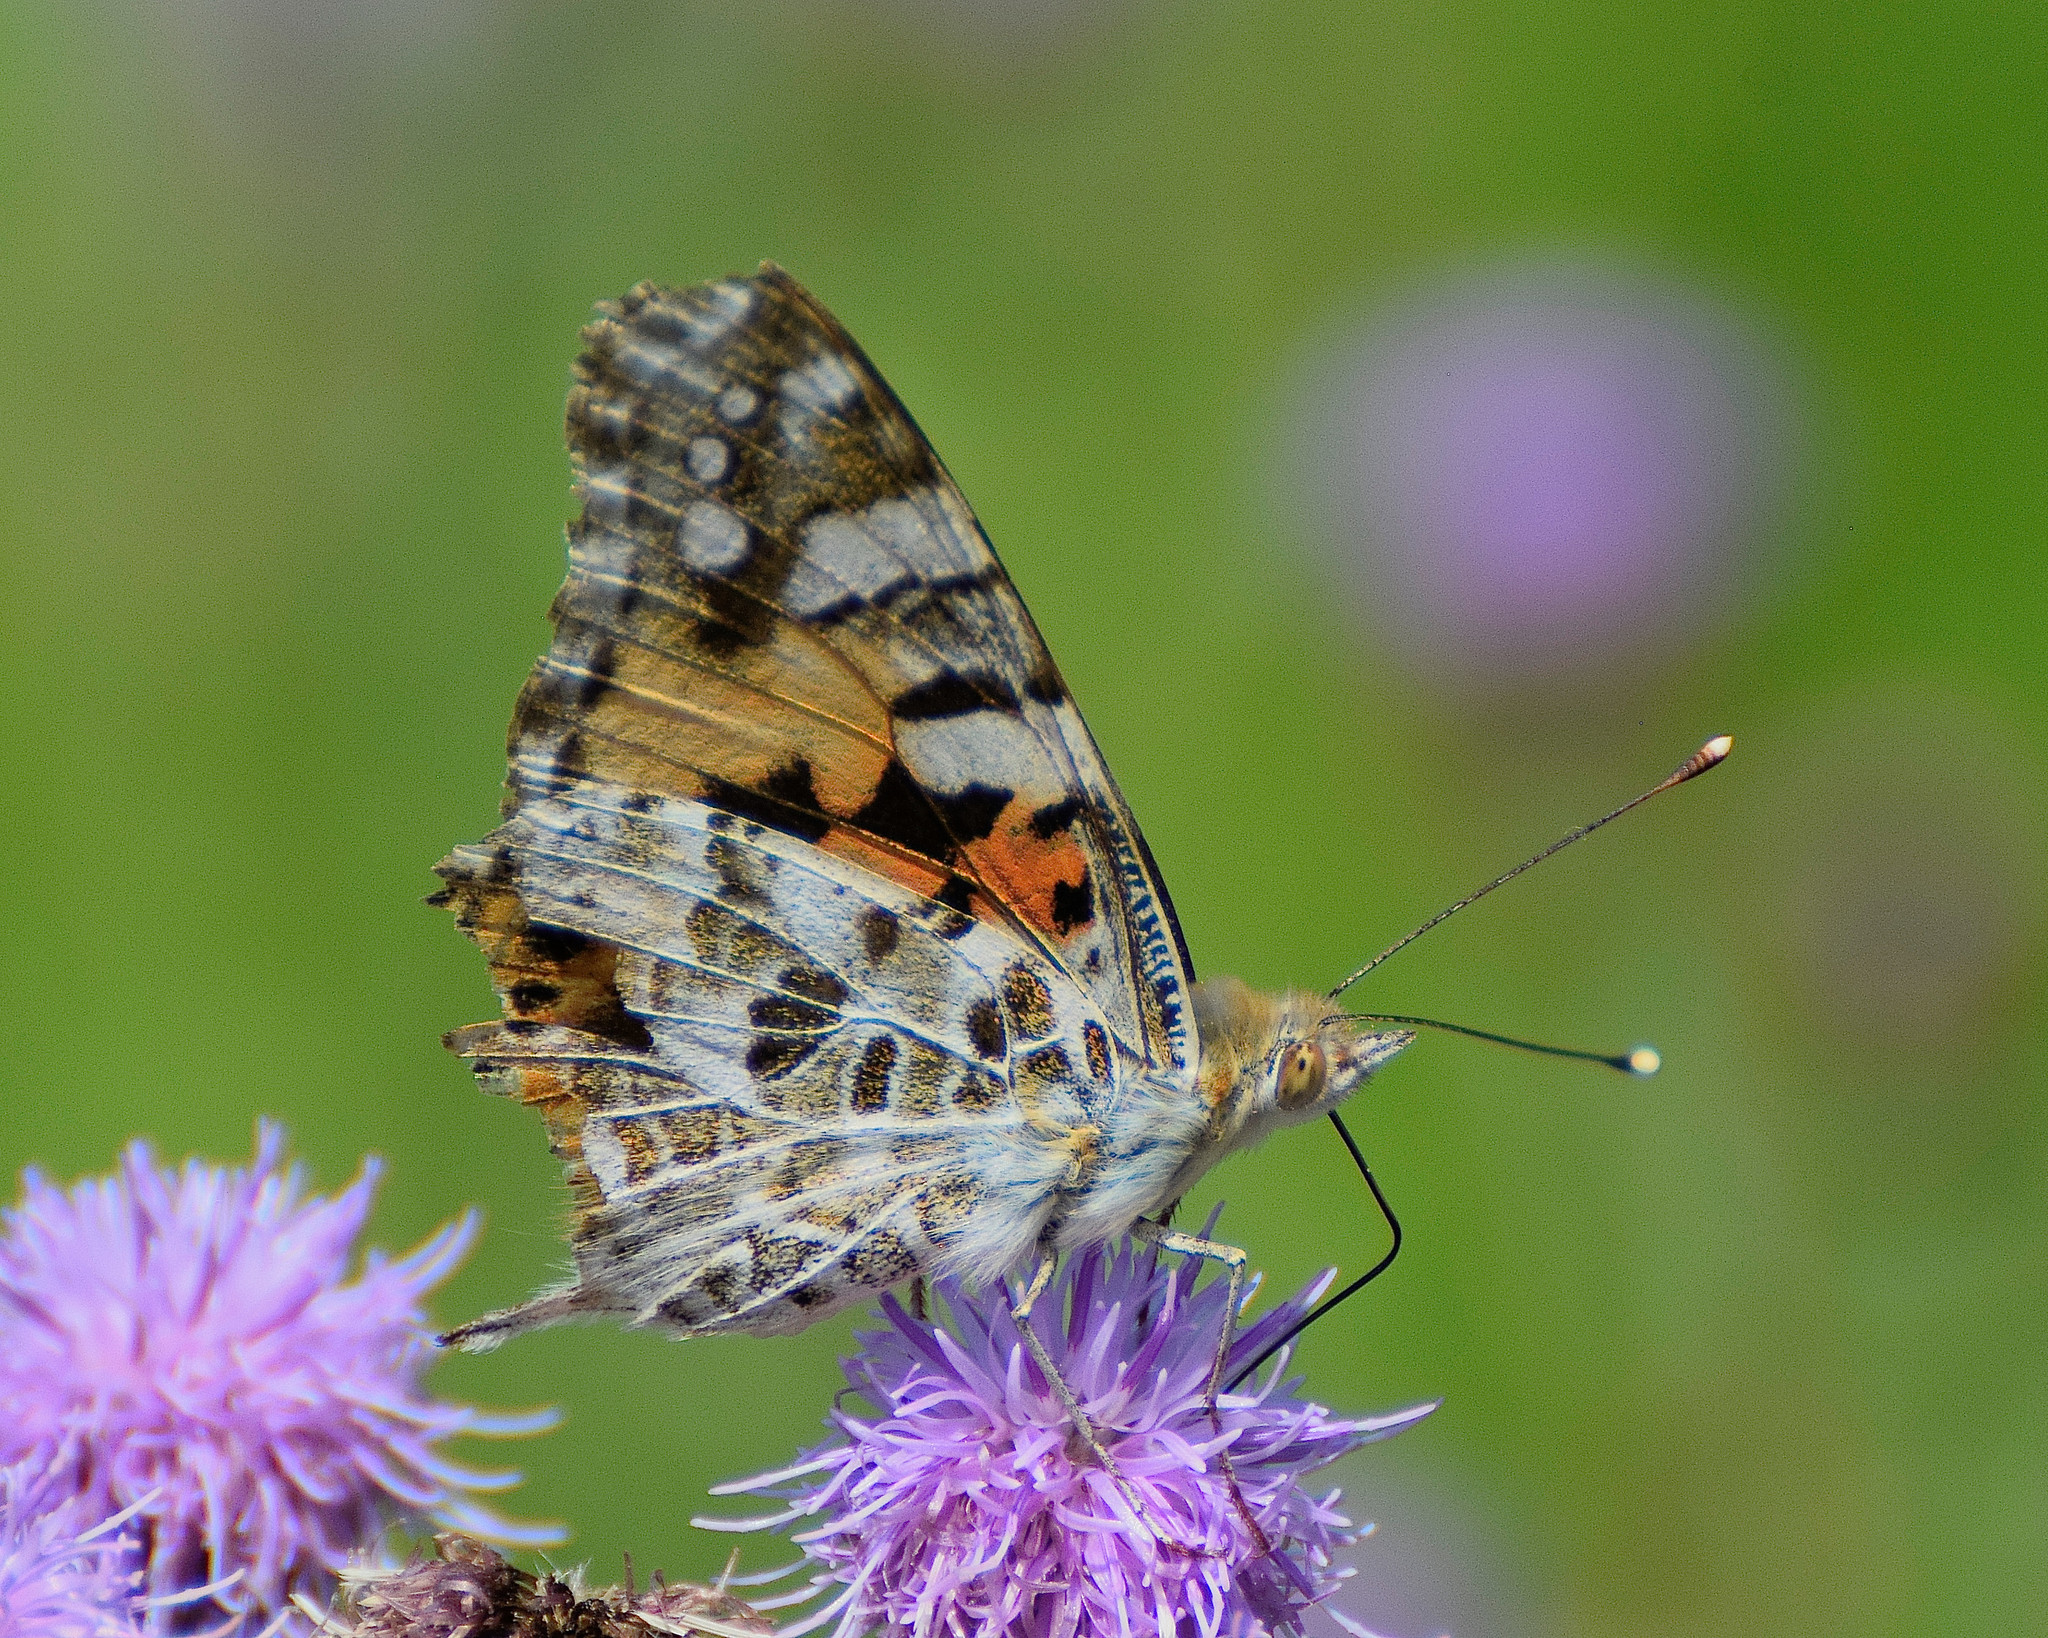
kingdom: Animalia
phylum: Arthropoda
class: Insecta
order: Lepidoptera
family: Nymphalidae
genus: Vanessa
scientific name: Vanessa cardui
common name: Painted lady
